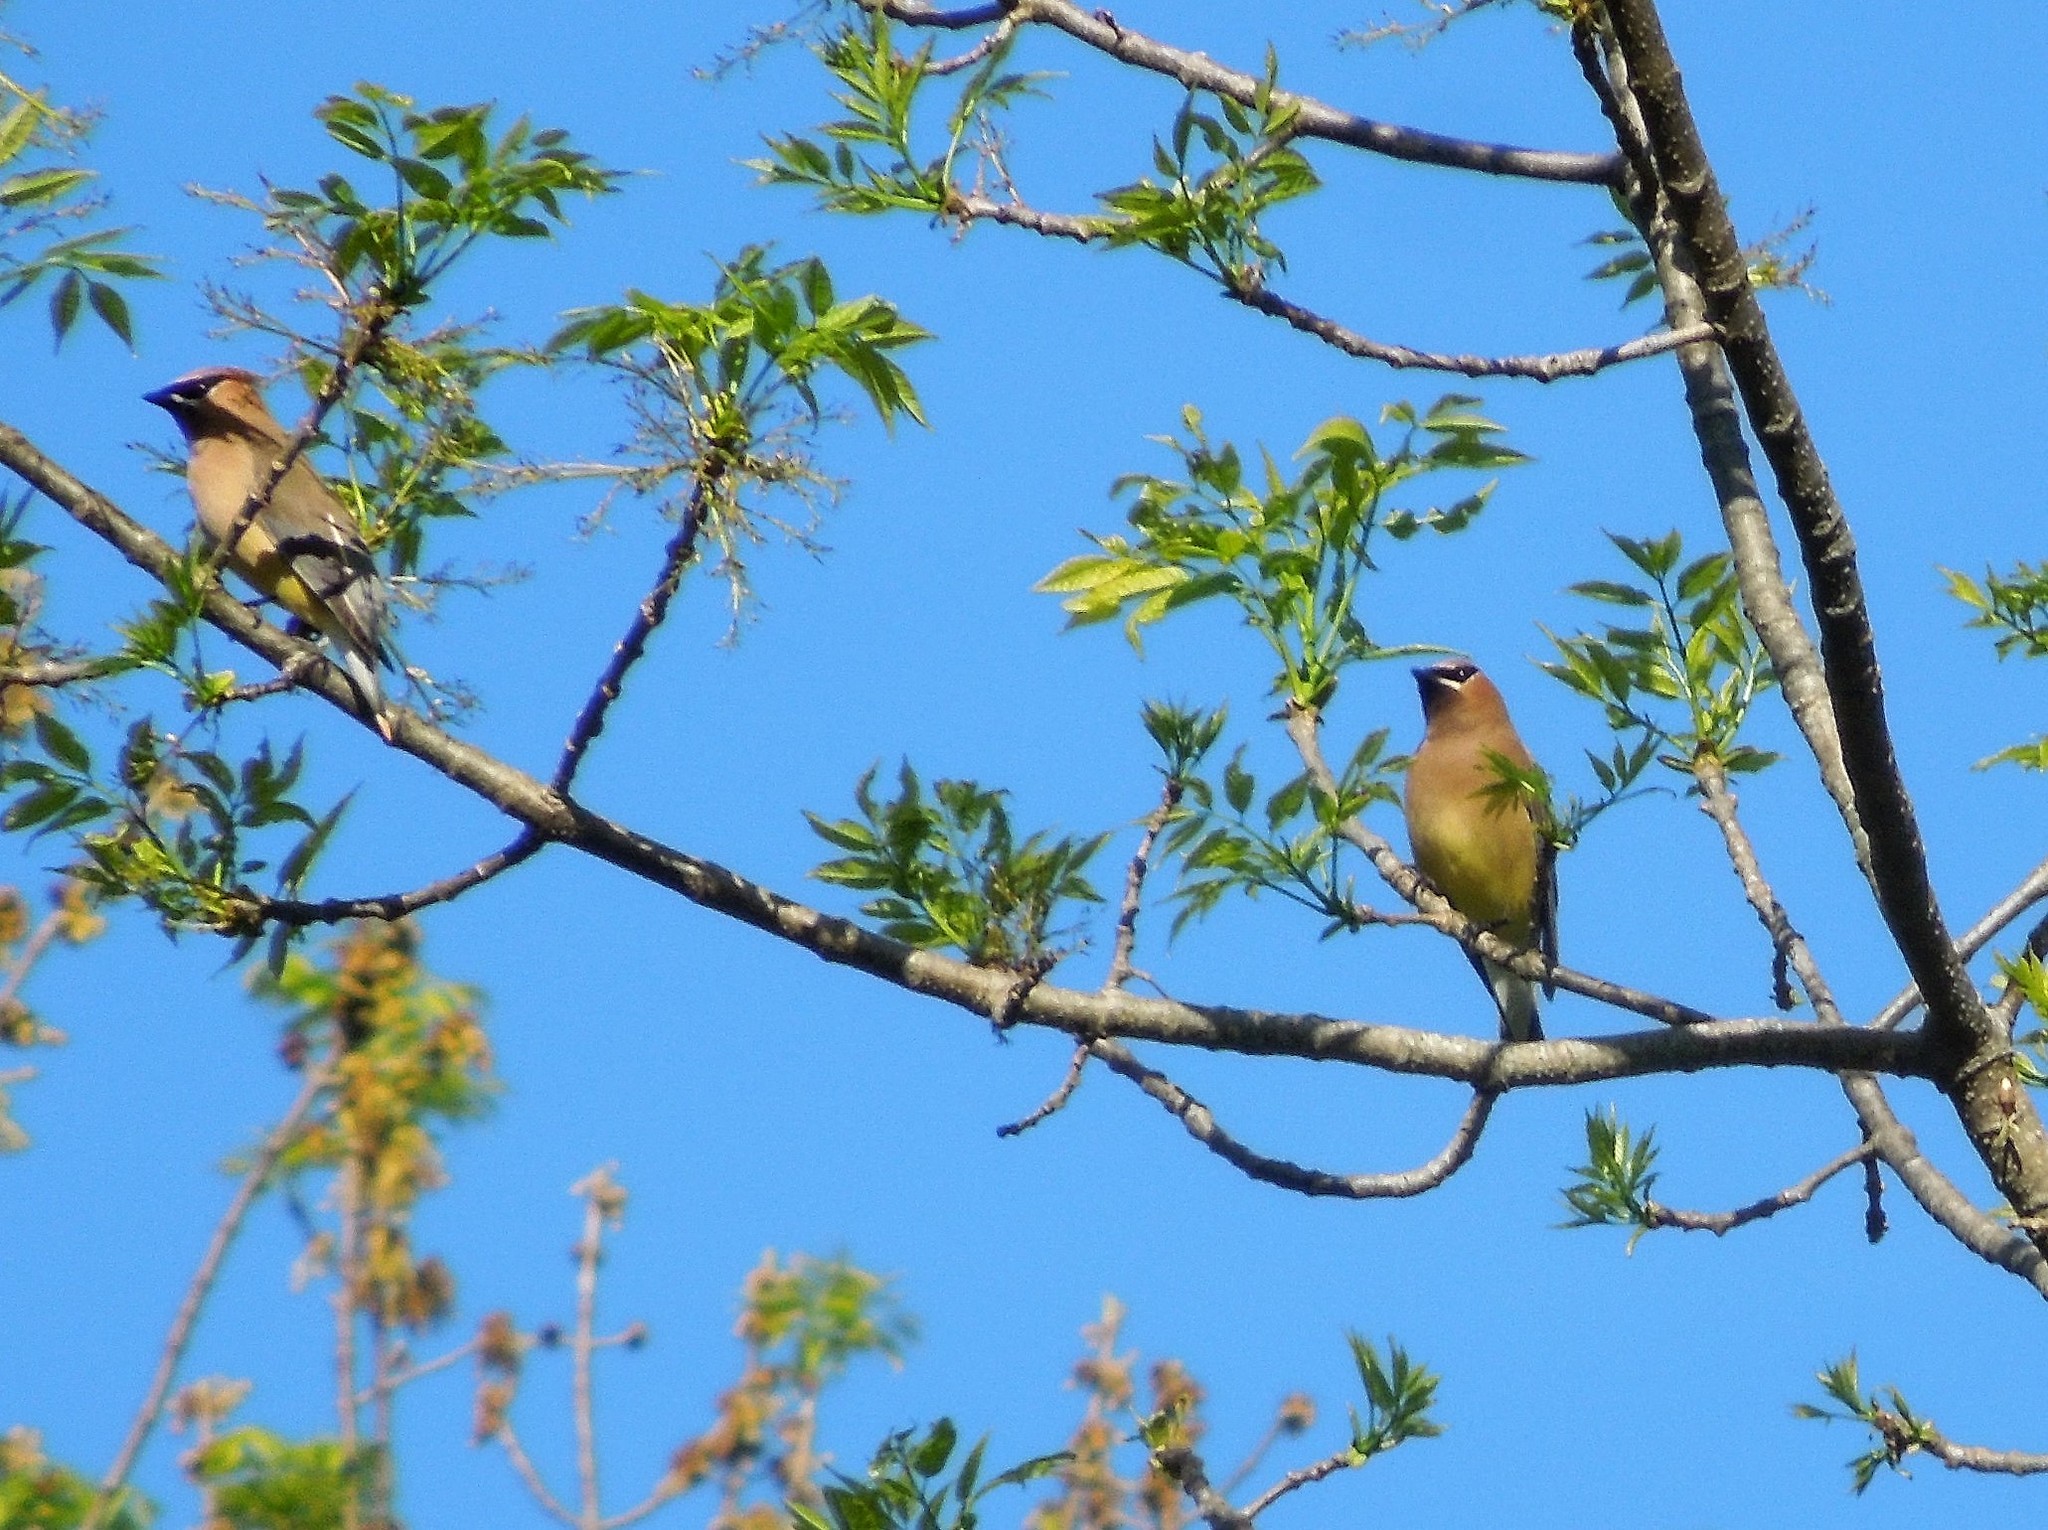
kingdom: Animalia
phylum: Chordata
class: Aves
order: Passeriformes
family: Bombycillidae
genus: Bombycilla
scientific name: Bombycilla cedrorum
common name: Cedar waxwing
